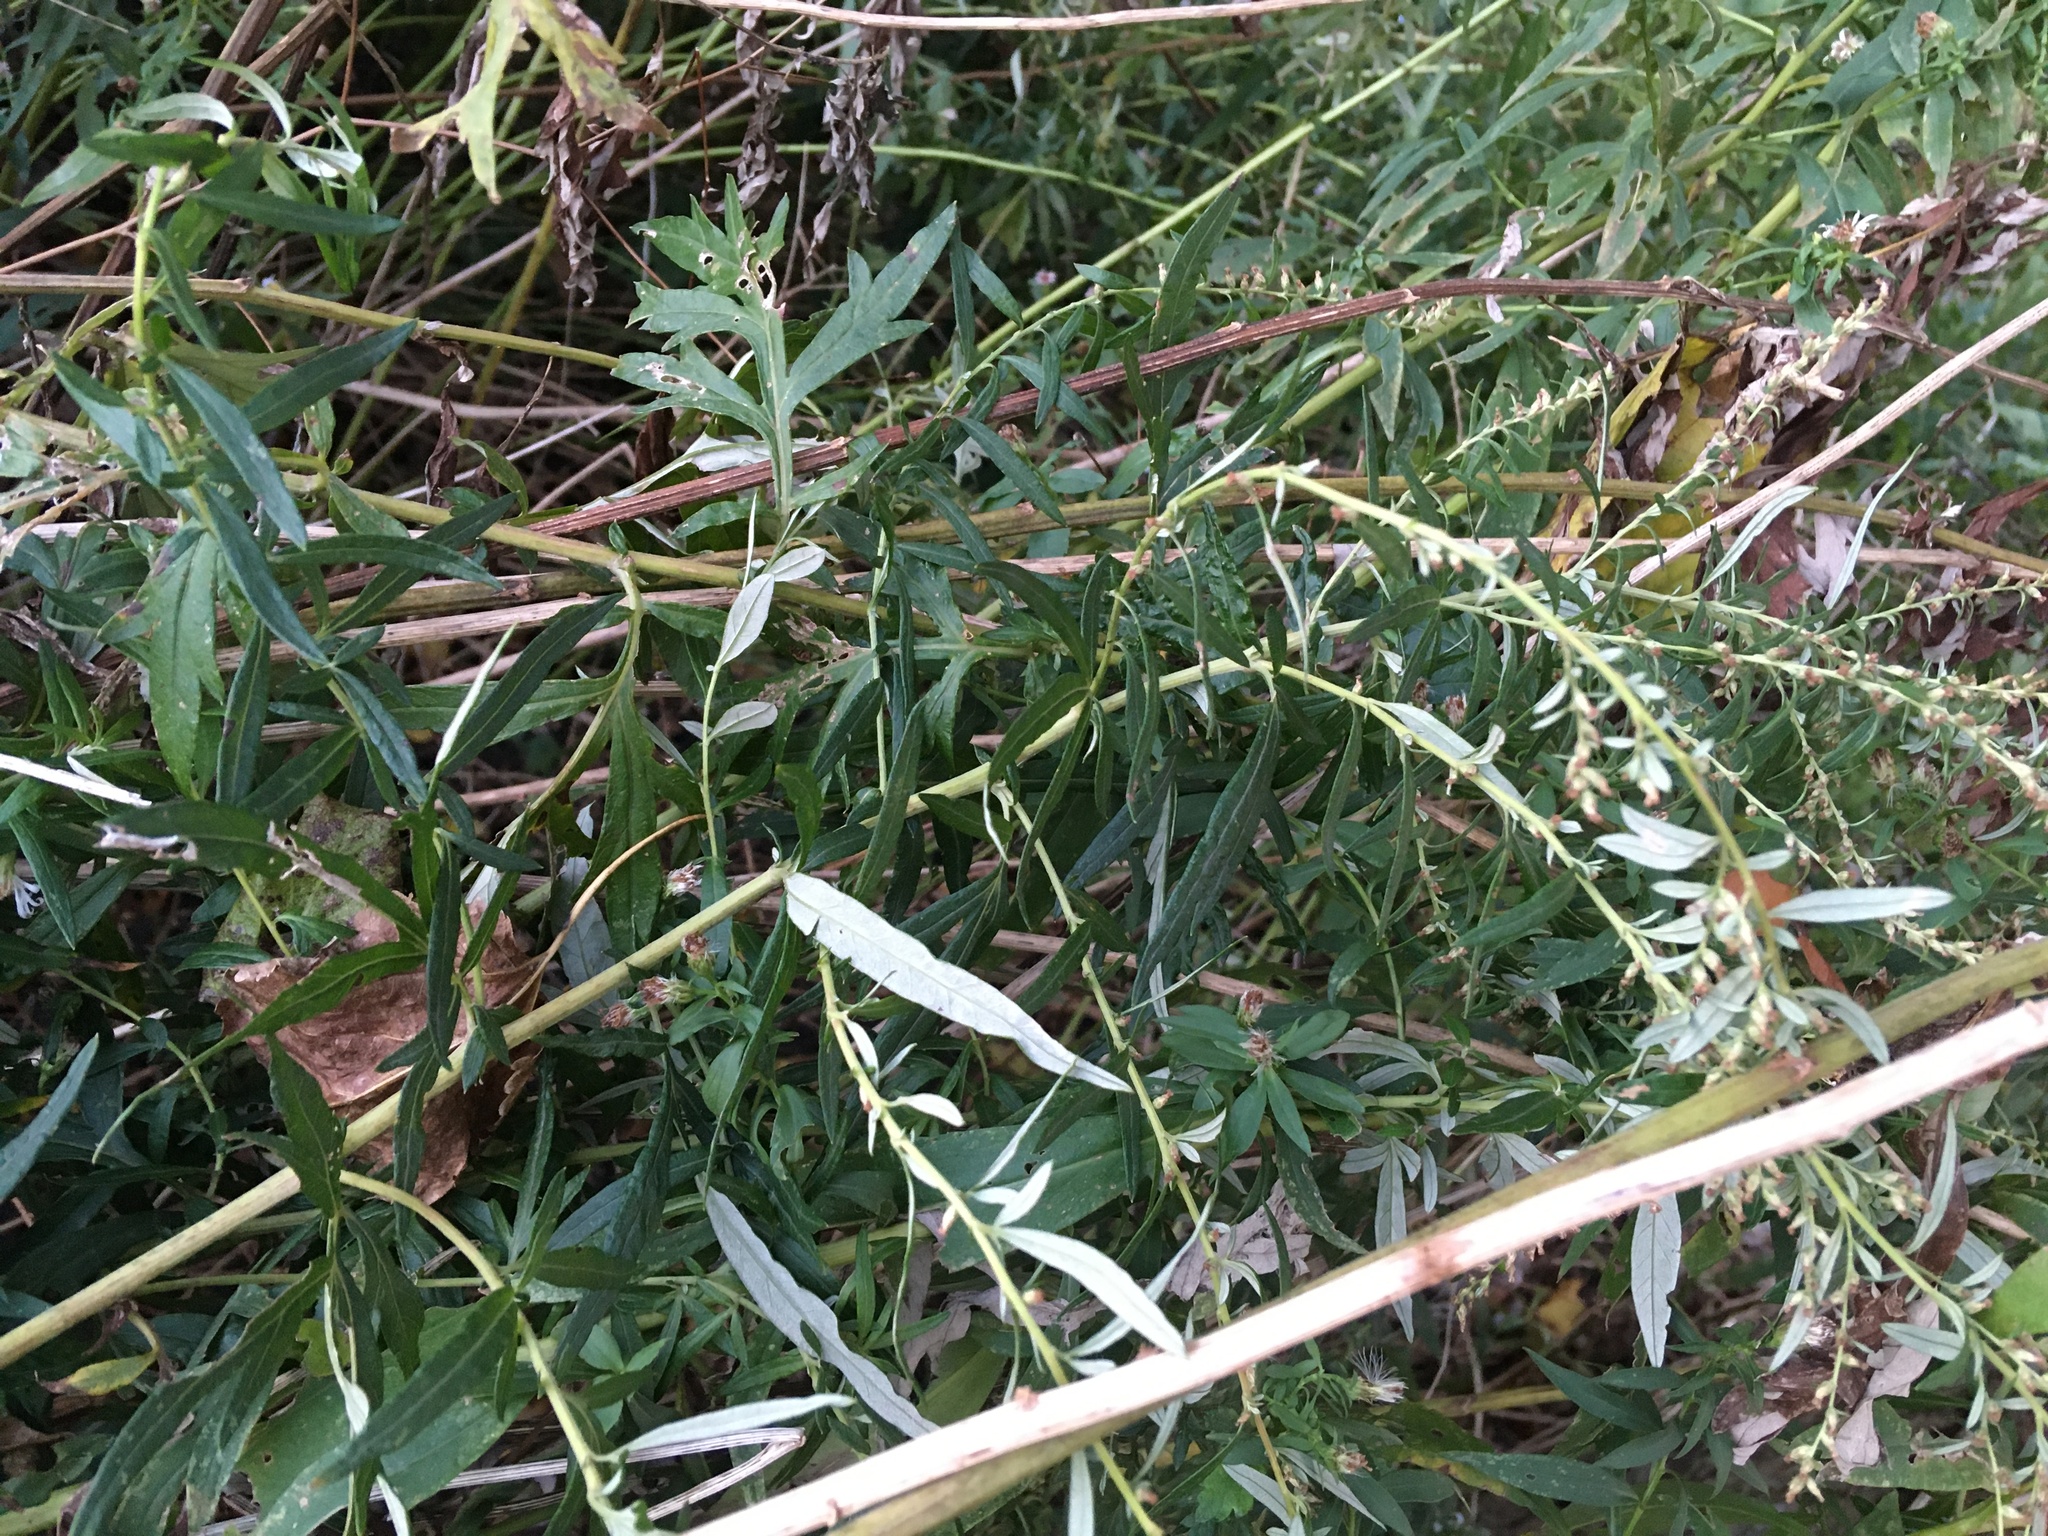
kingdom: Plantae
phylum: Tracheophyta
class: Magnoliopsida
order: Asterales
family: Asteraceae
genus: Artemisia
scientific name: Artemisia vulgaris
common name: Mugwort
